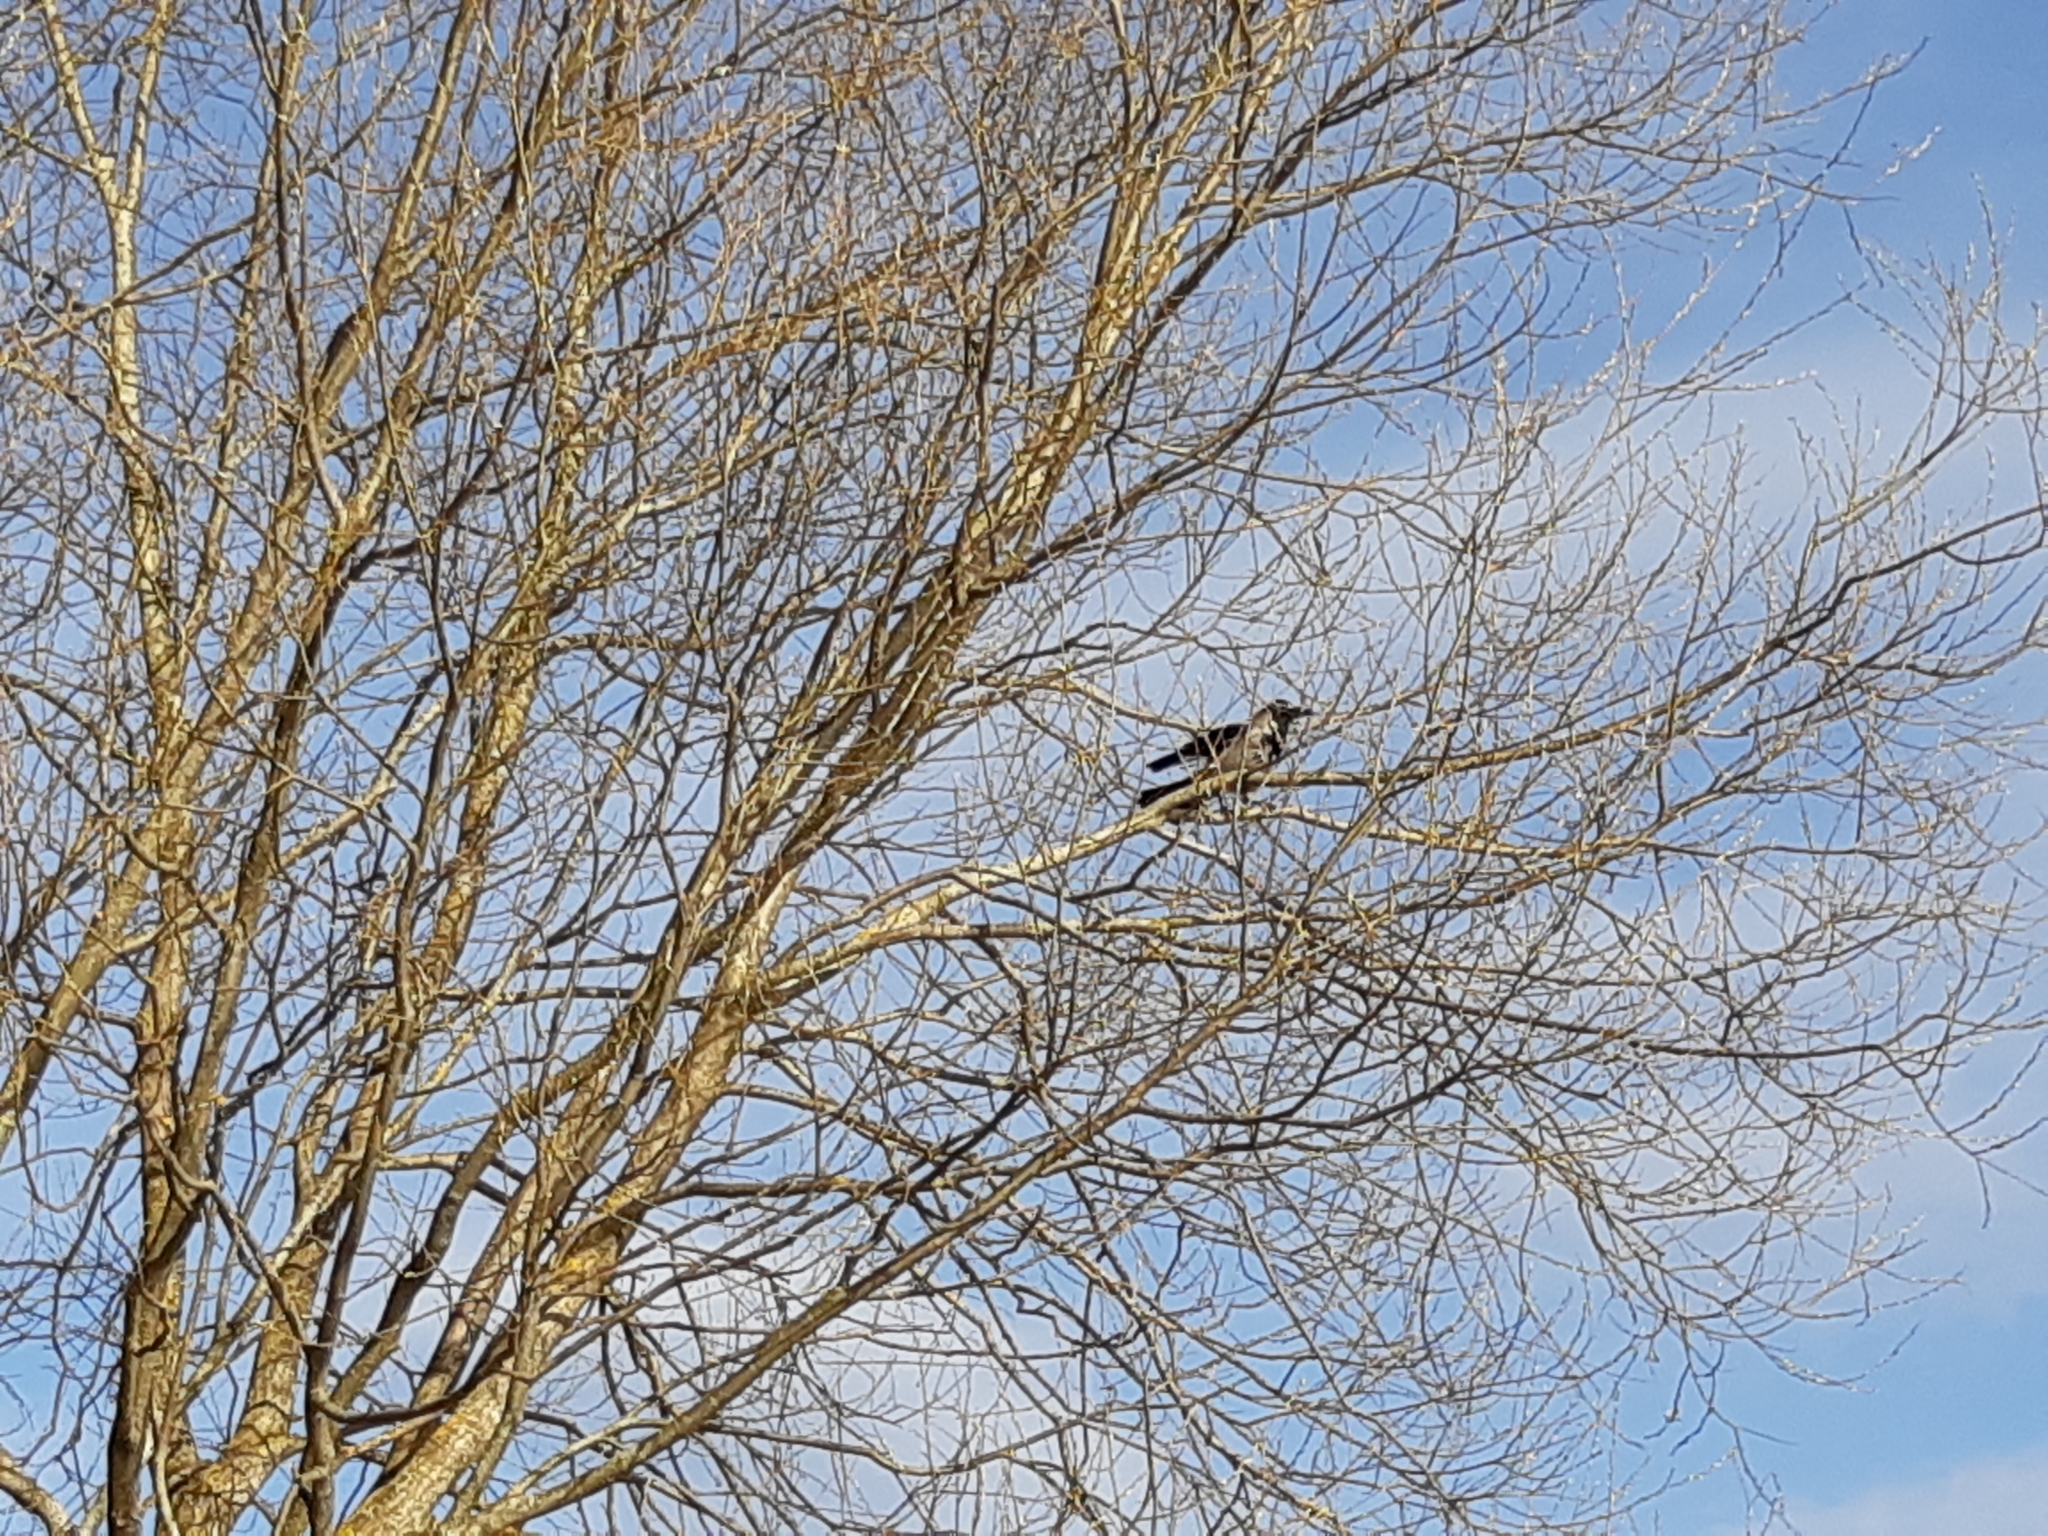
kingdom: Animalia
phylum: Chordata
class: Aves
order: Passeriformes
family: Corvidae
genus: Corvus
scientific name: Corvus cornix
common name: Hooded crow
